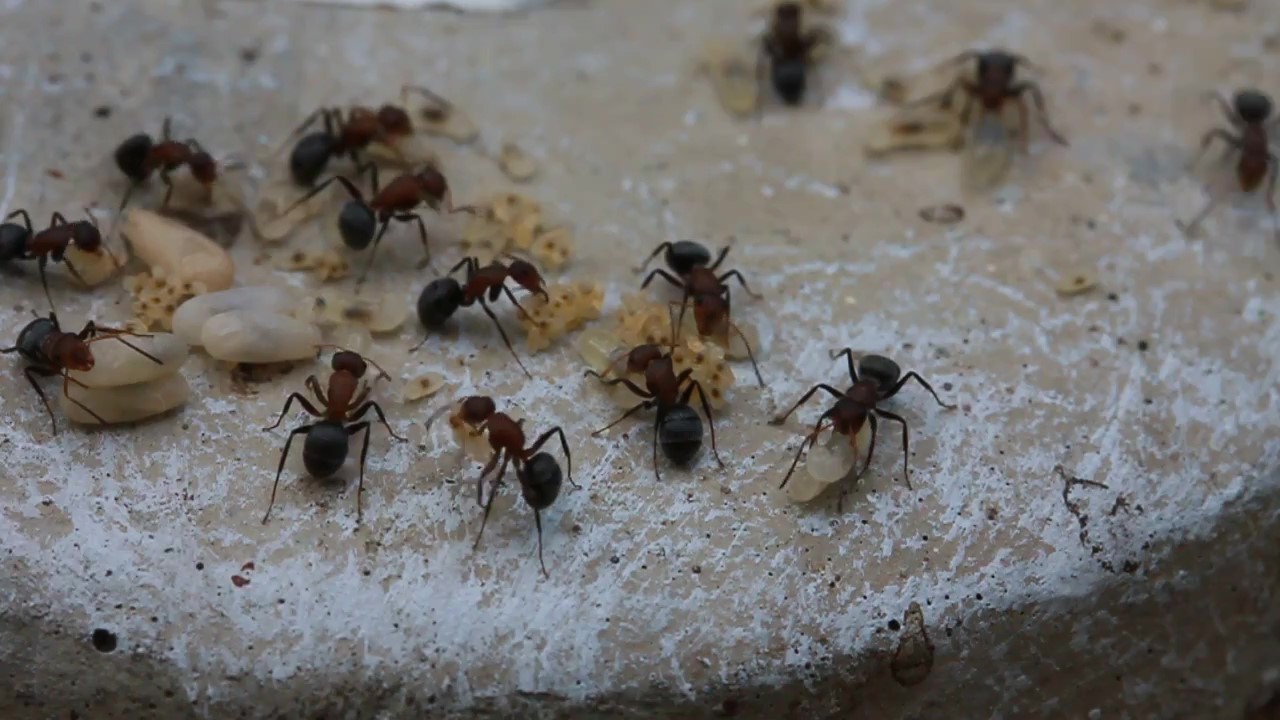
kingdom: Animalia
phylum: Arthropoda
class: Insecta
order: Hymenoptera
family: Formicidae
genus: Camponotus
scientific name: Camponotus planatus
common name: Compact carpenter ant
